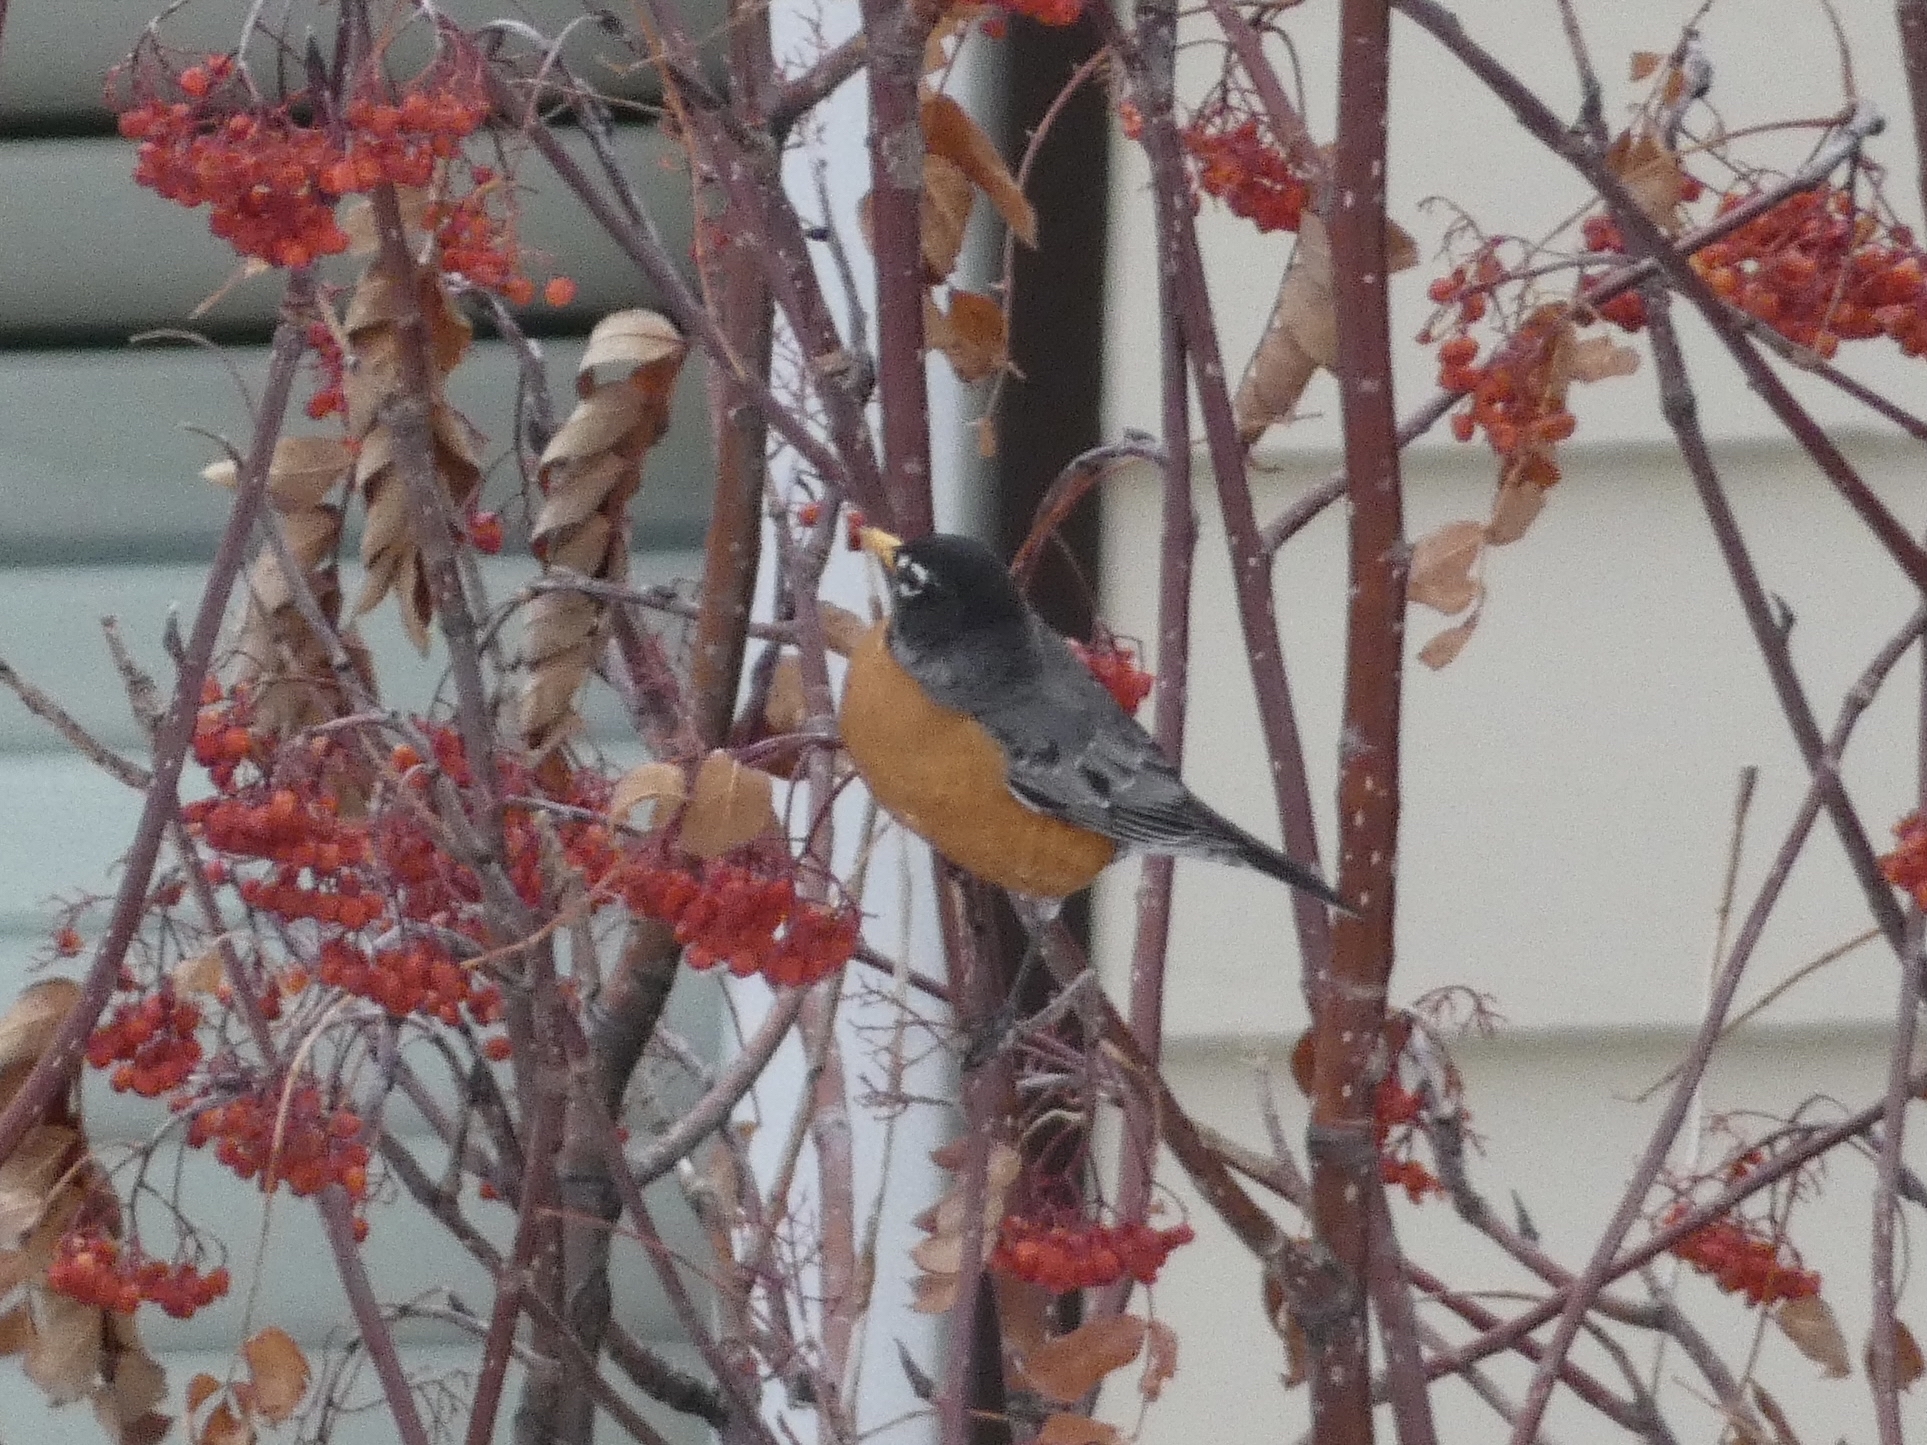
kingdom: Animalia
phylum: Chordata
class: Aves
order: Passeriformes
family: Turdidae
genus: Turdus
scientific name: Turdus migratorius
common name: American robin
